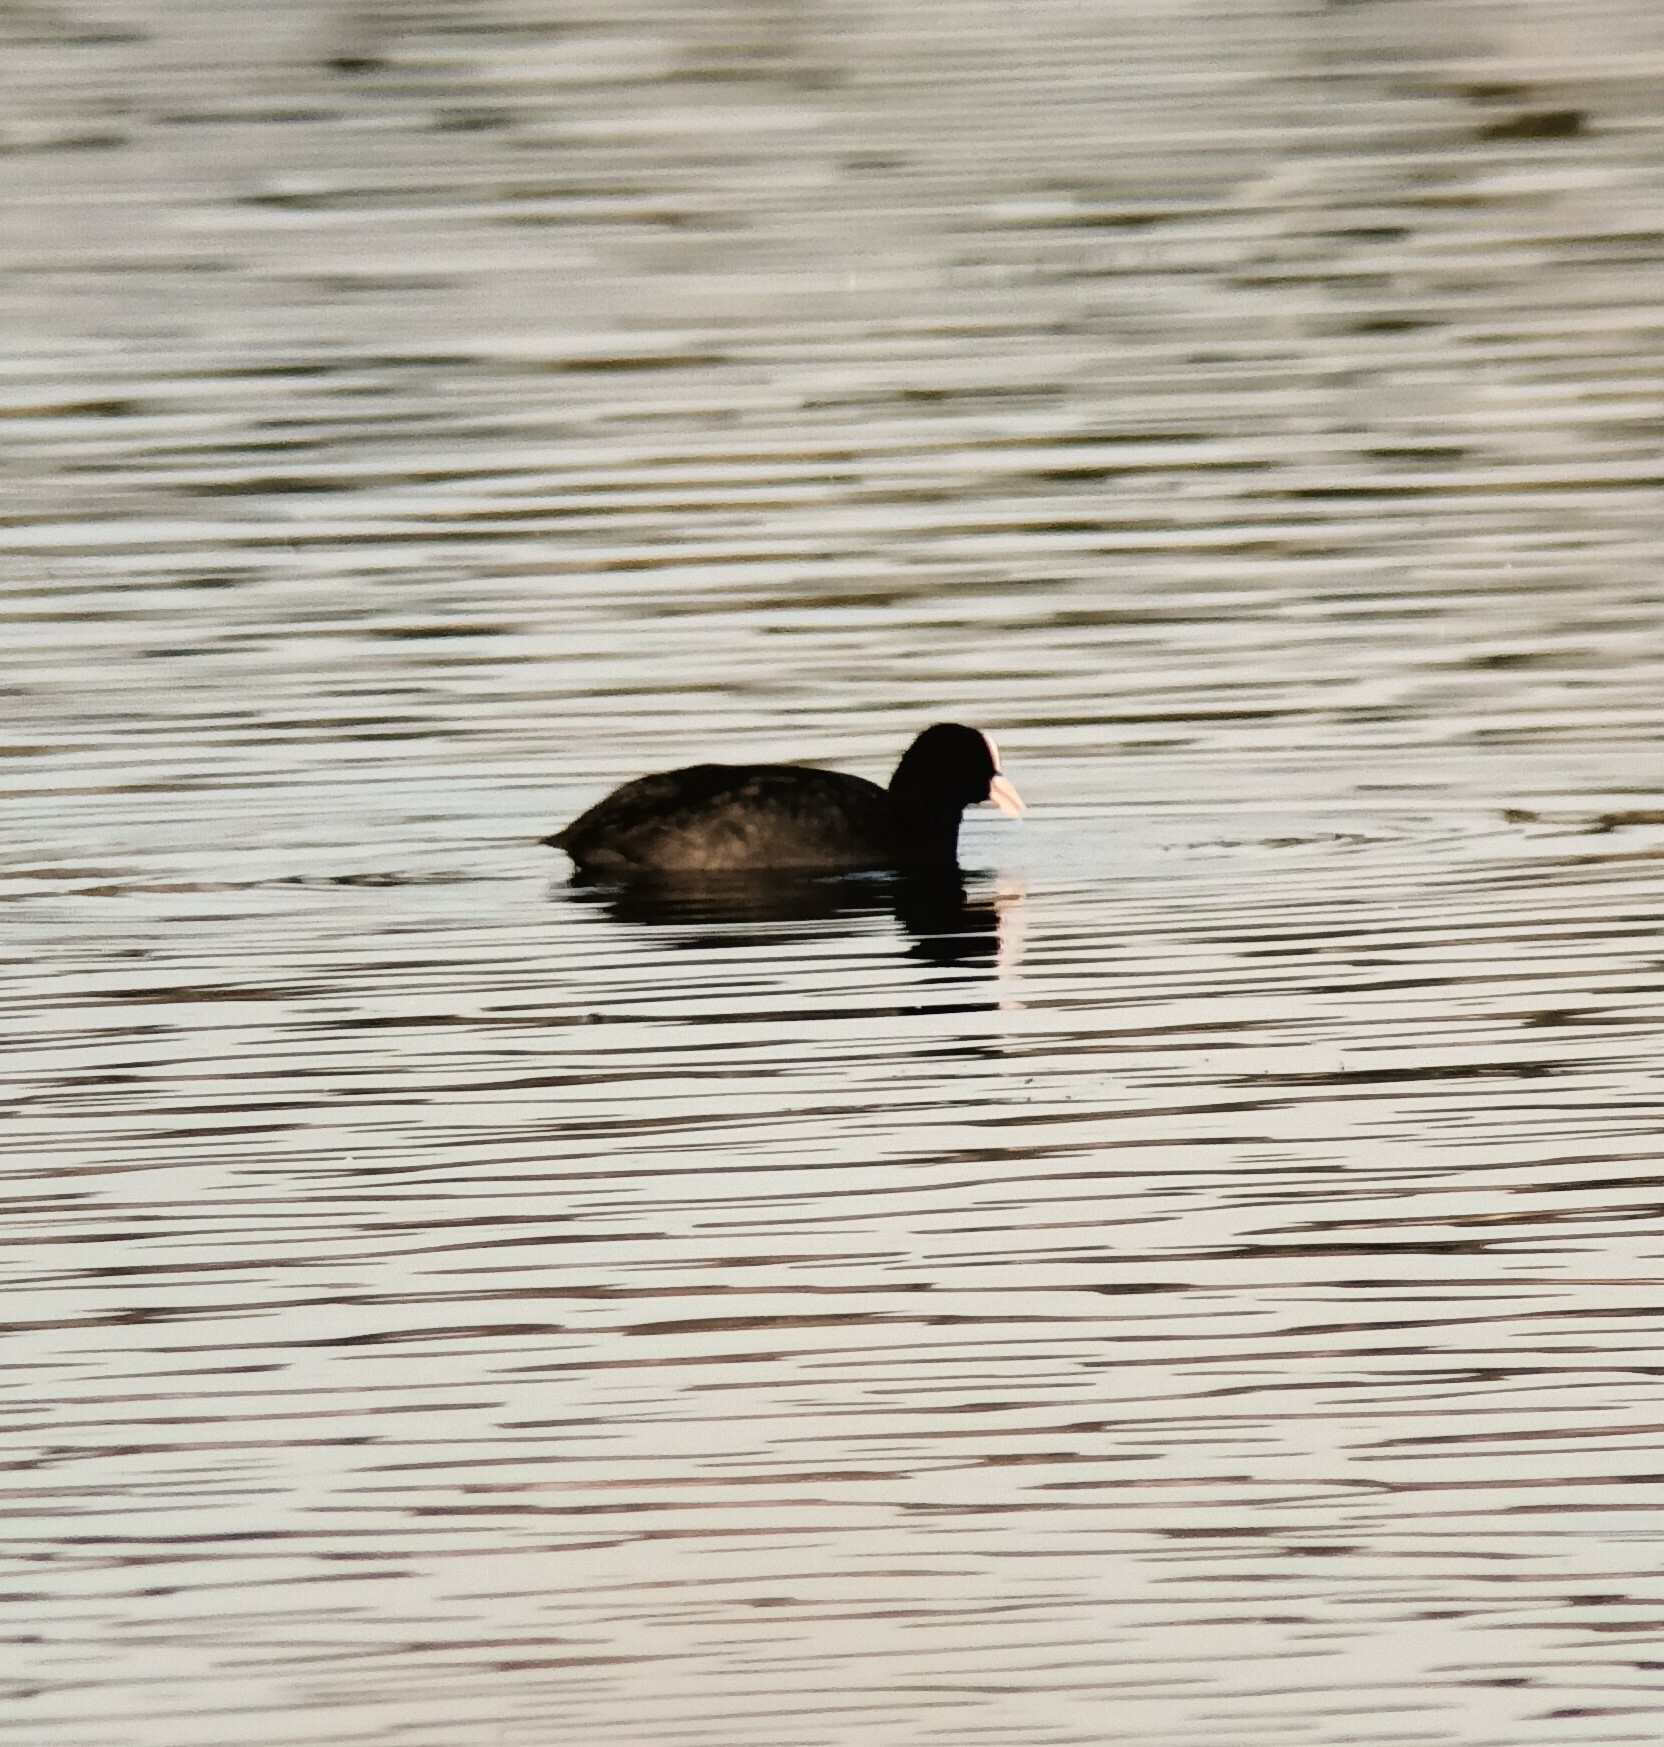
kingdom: Animalia
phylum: Chordata
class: Aves
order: Gruiformes
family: Rallidae
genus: Fulica
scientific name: Fulica atra
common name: Eurasian coot
